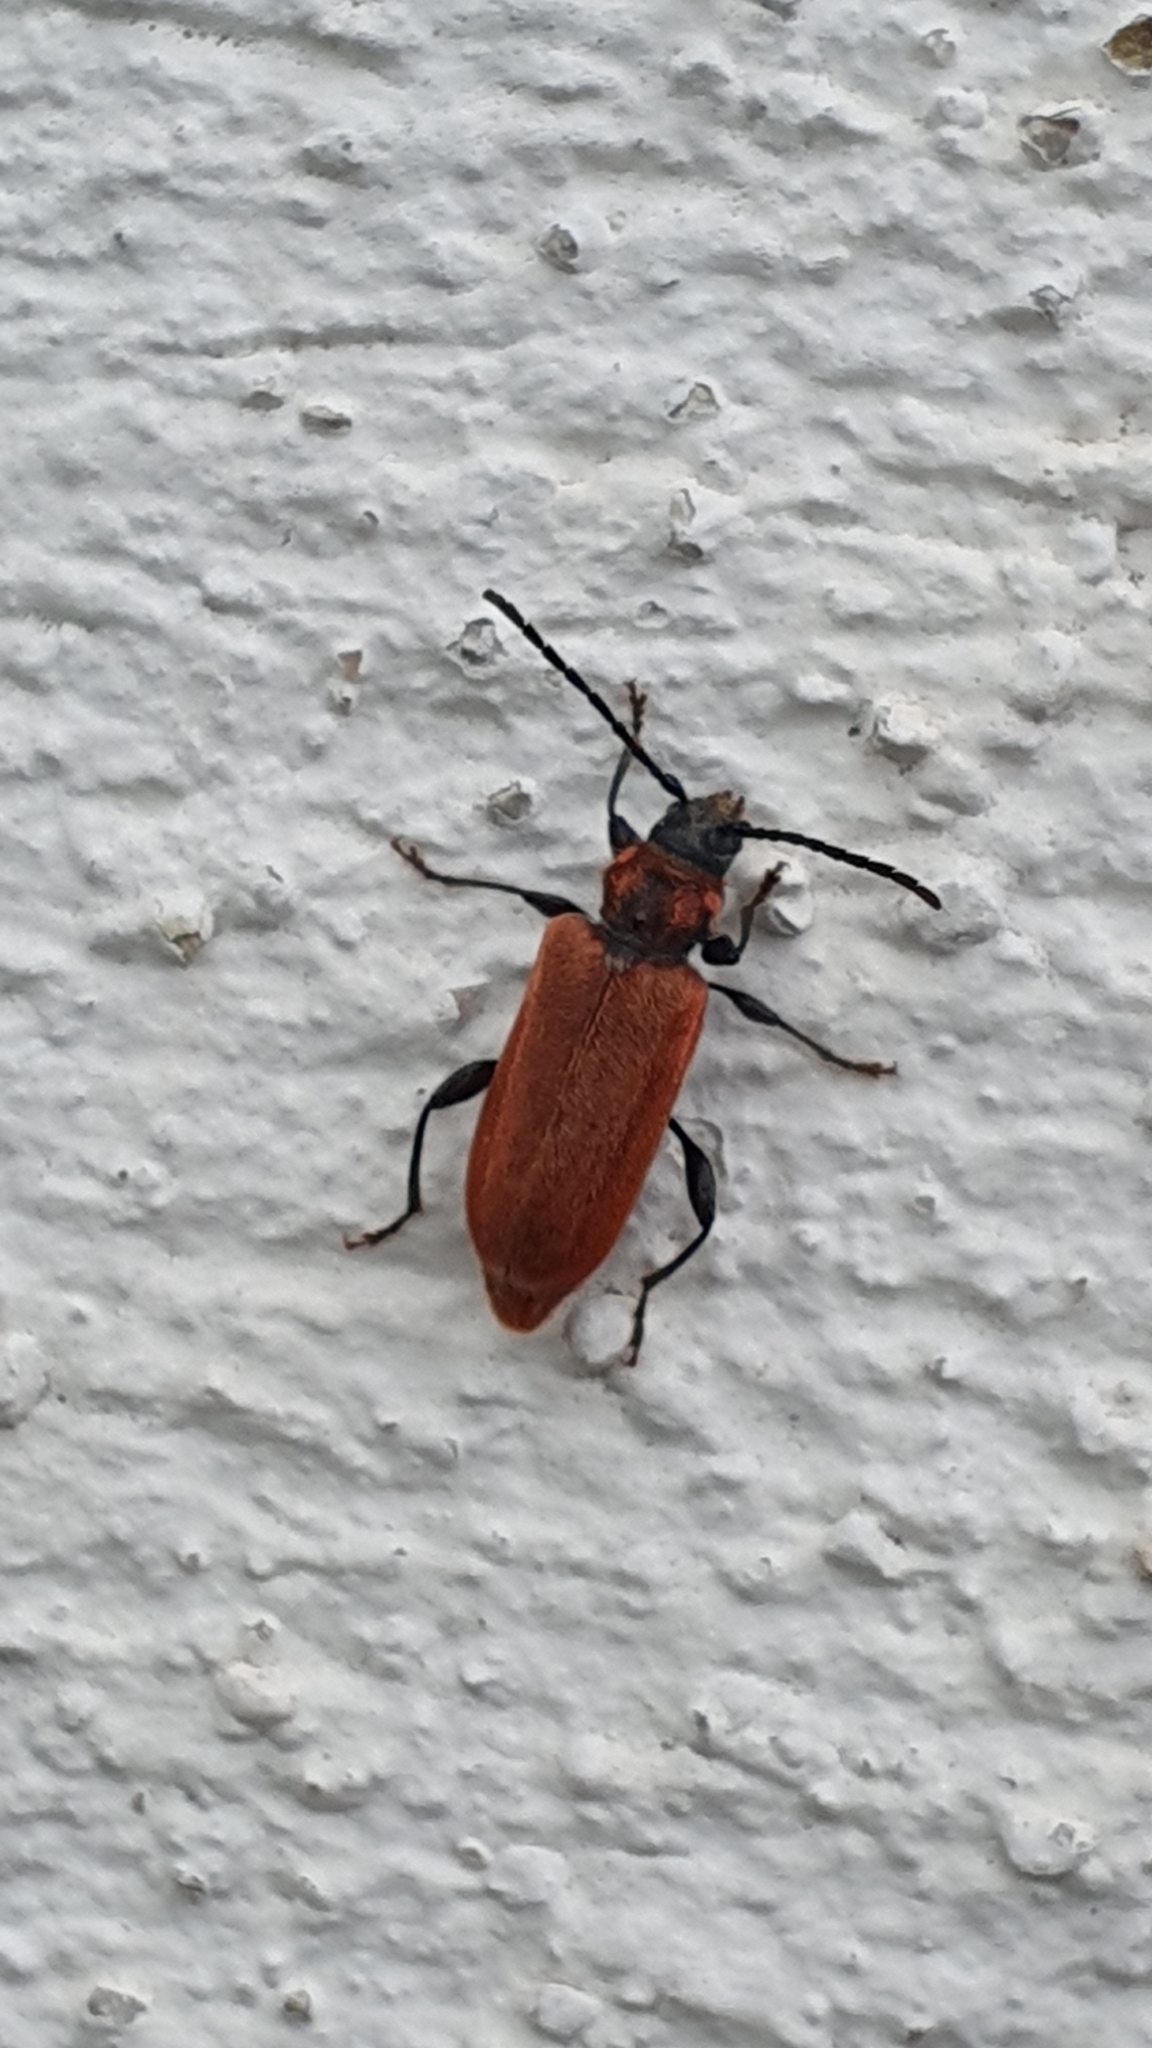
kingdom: Animalia
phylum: Arthropoda
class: Insecta
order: Coleoptera
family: Cerambycidae
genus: Pyrrhidium
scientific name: Pyrrhidium sanguineum
